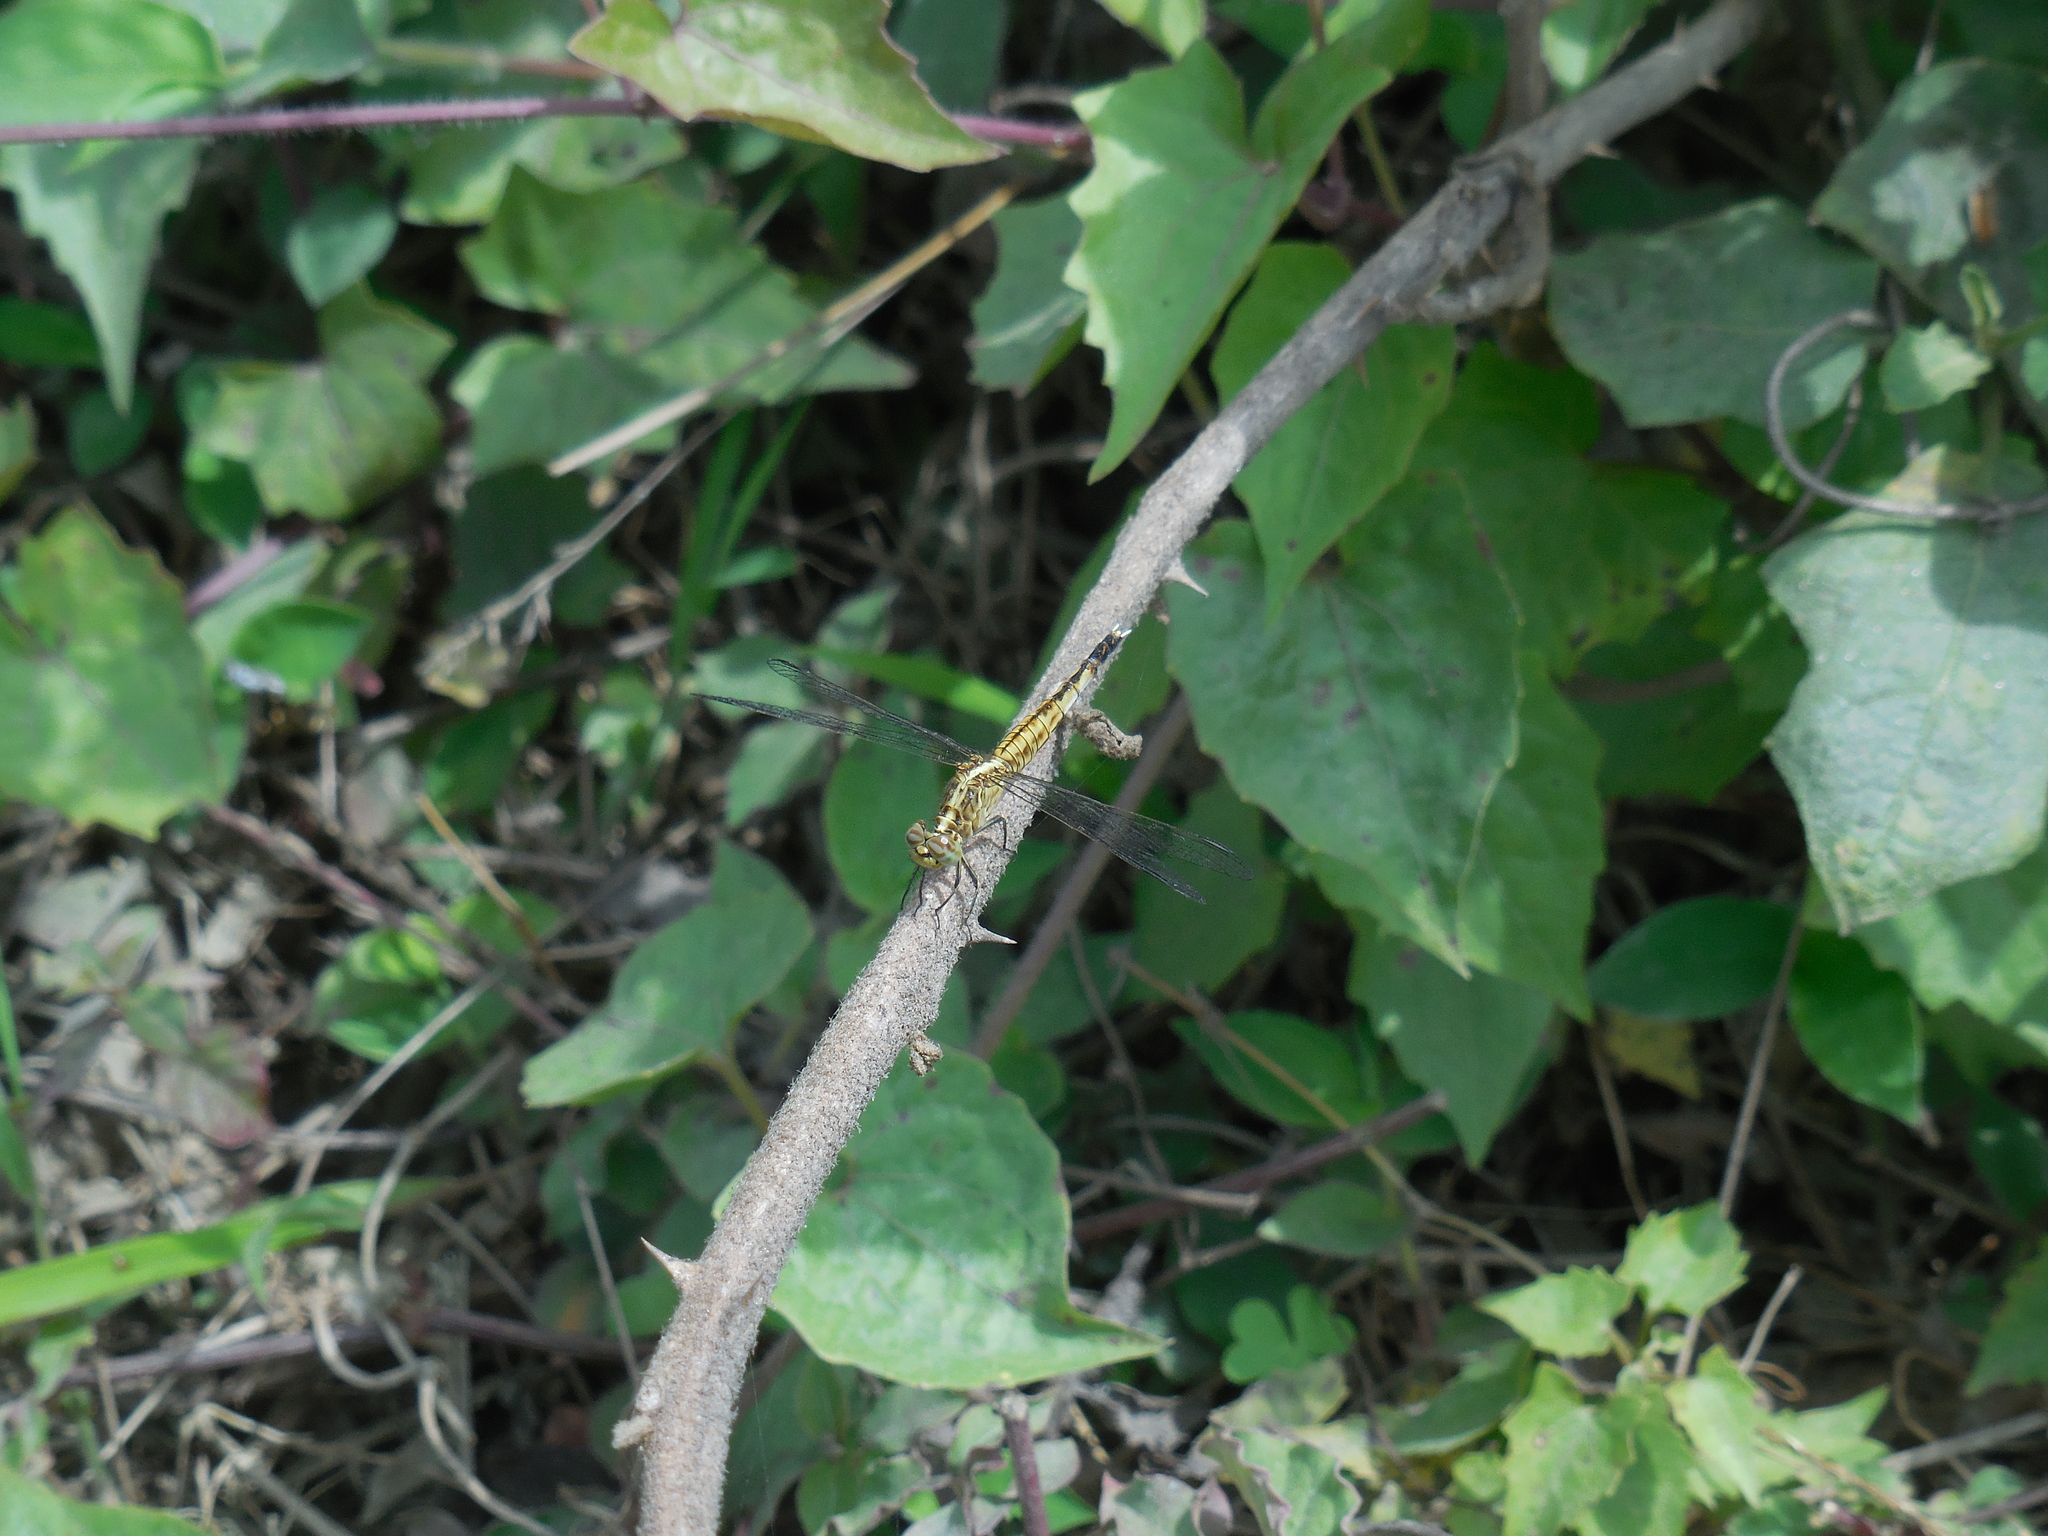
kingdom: Animalia
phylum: Arthropoda
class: Insecta
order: Odonata
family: Libellulidae
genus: Acisoma
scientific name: Acisoma panorpoides
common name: Asian pintail
